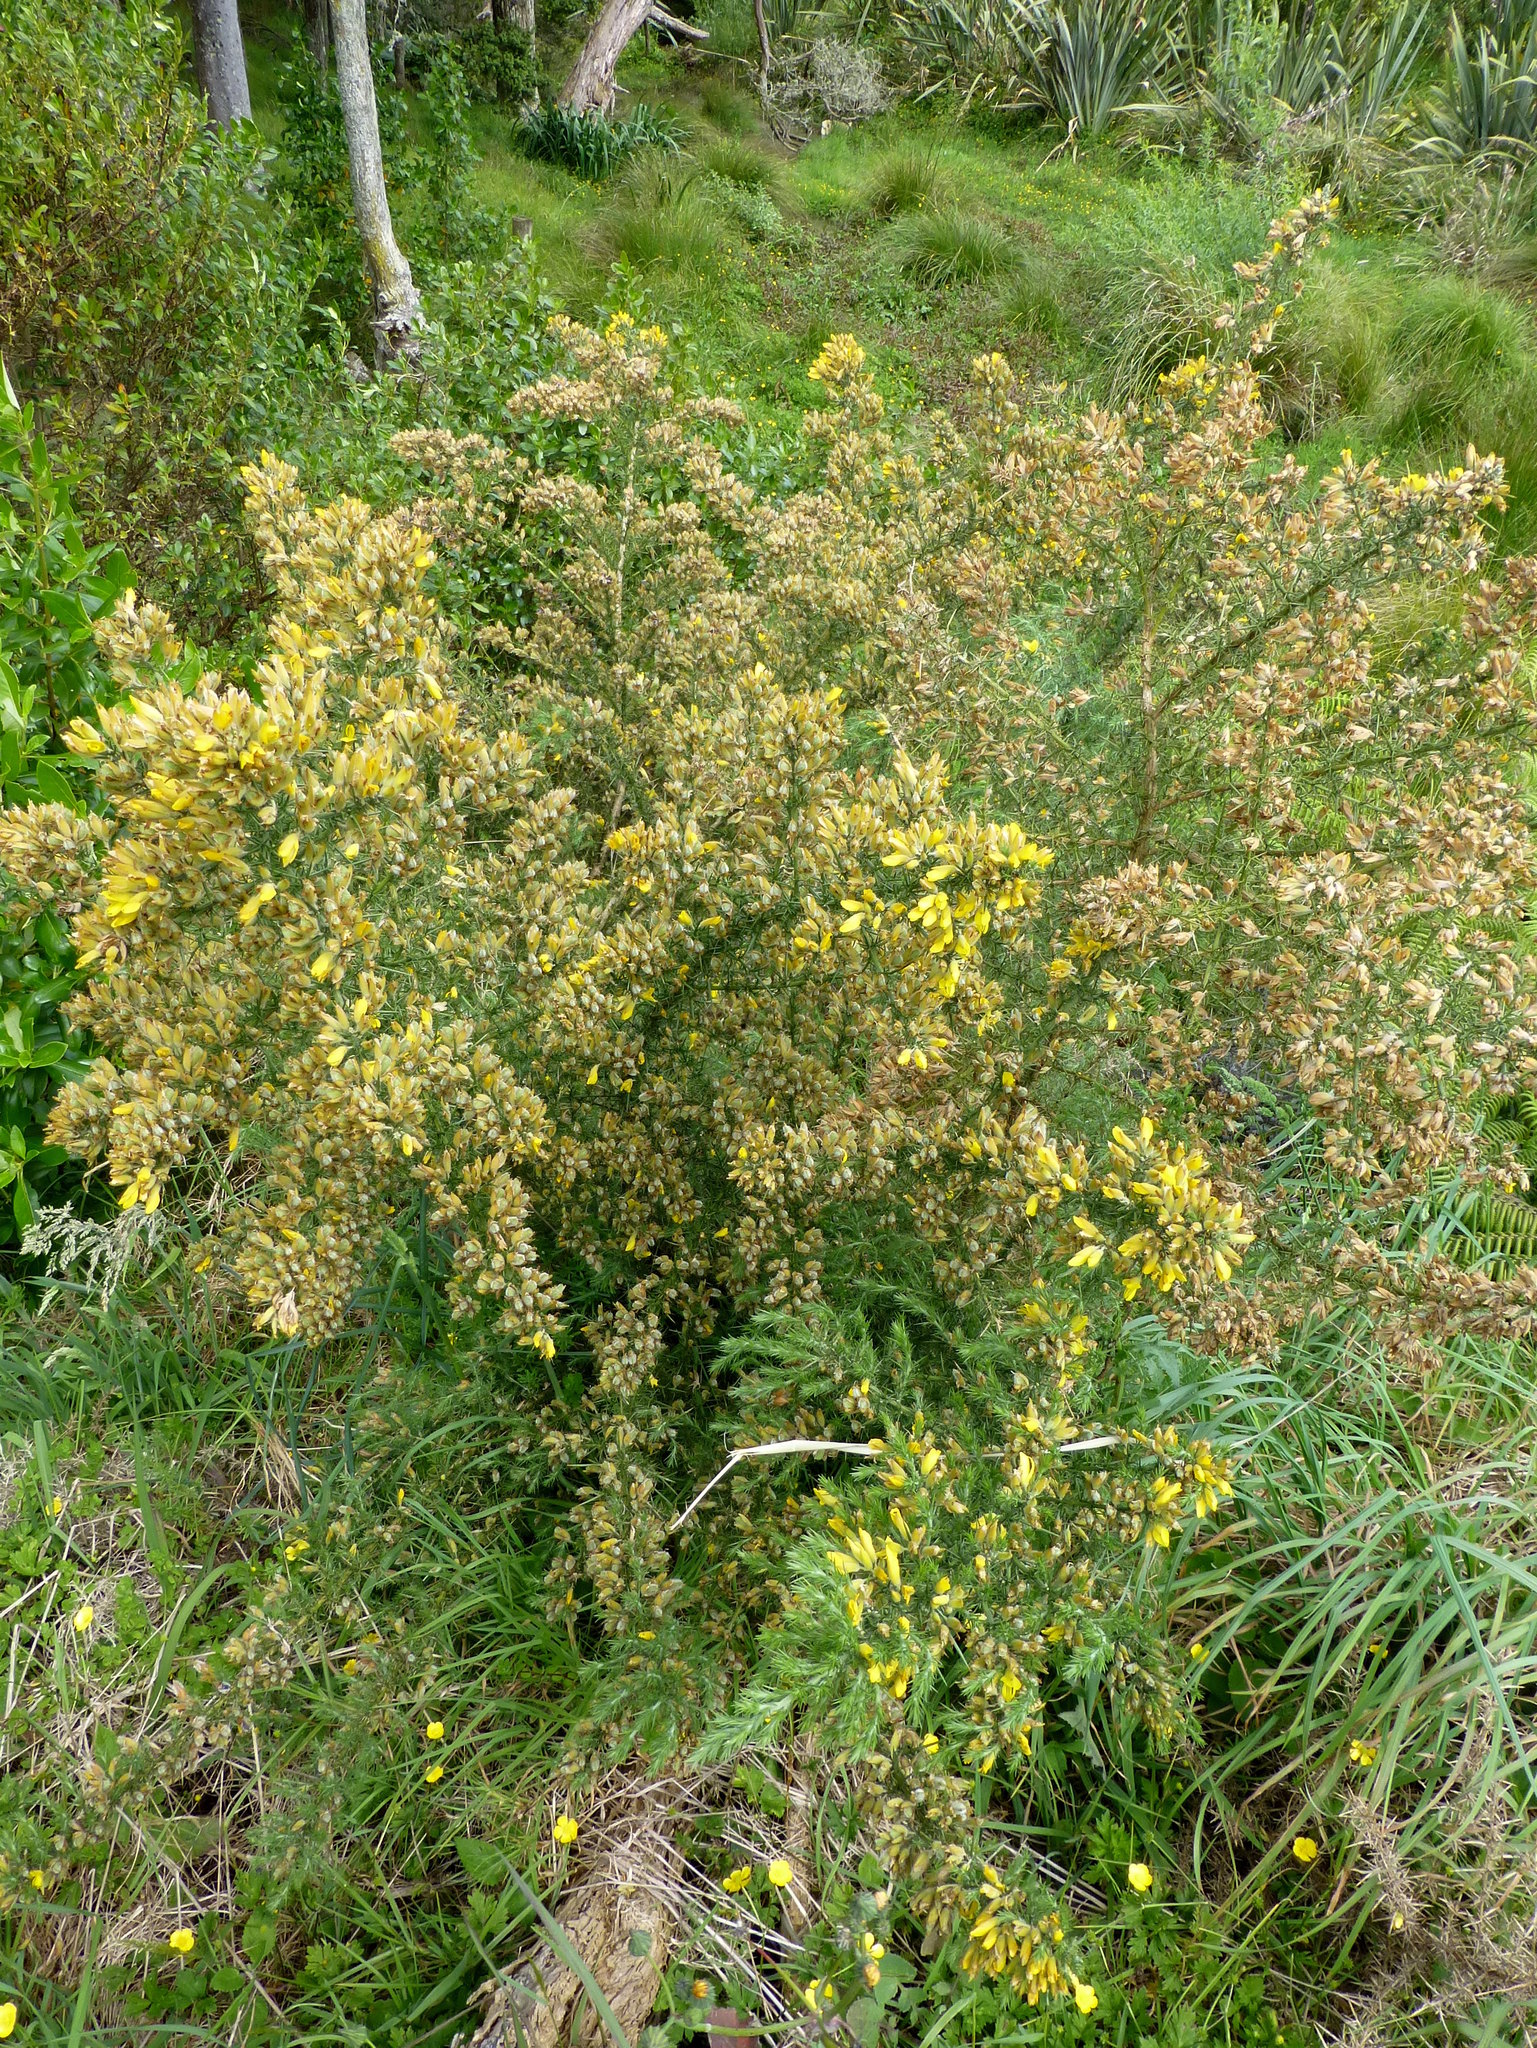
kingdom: Plantae
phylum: Tracheophyta
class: Magnoliopsida
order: Fabales
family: Fabaceae
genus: Ulex
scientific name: Ulex europaeus
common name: Common gorse
